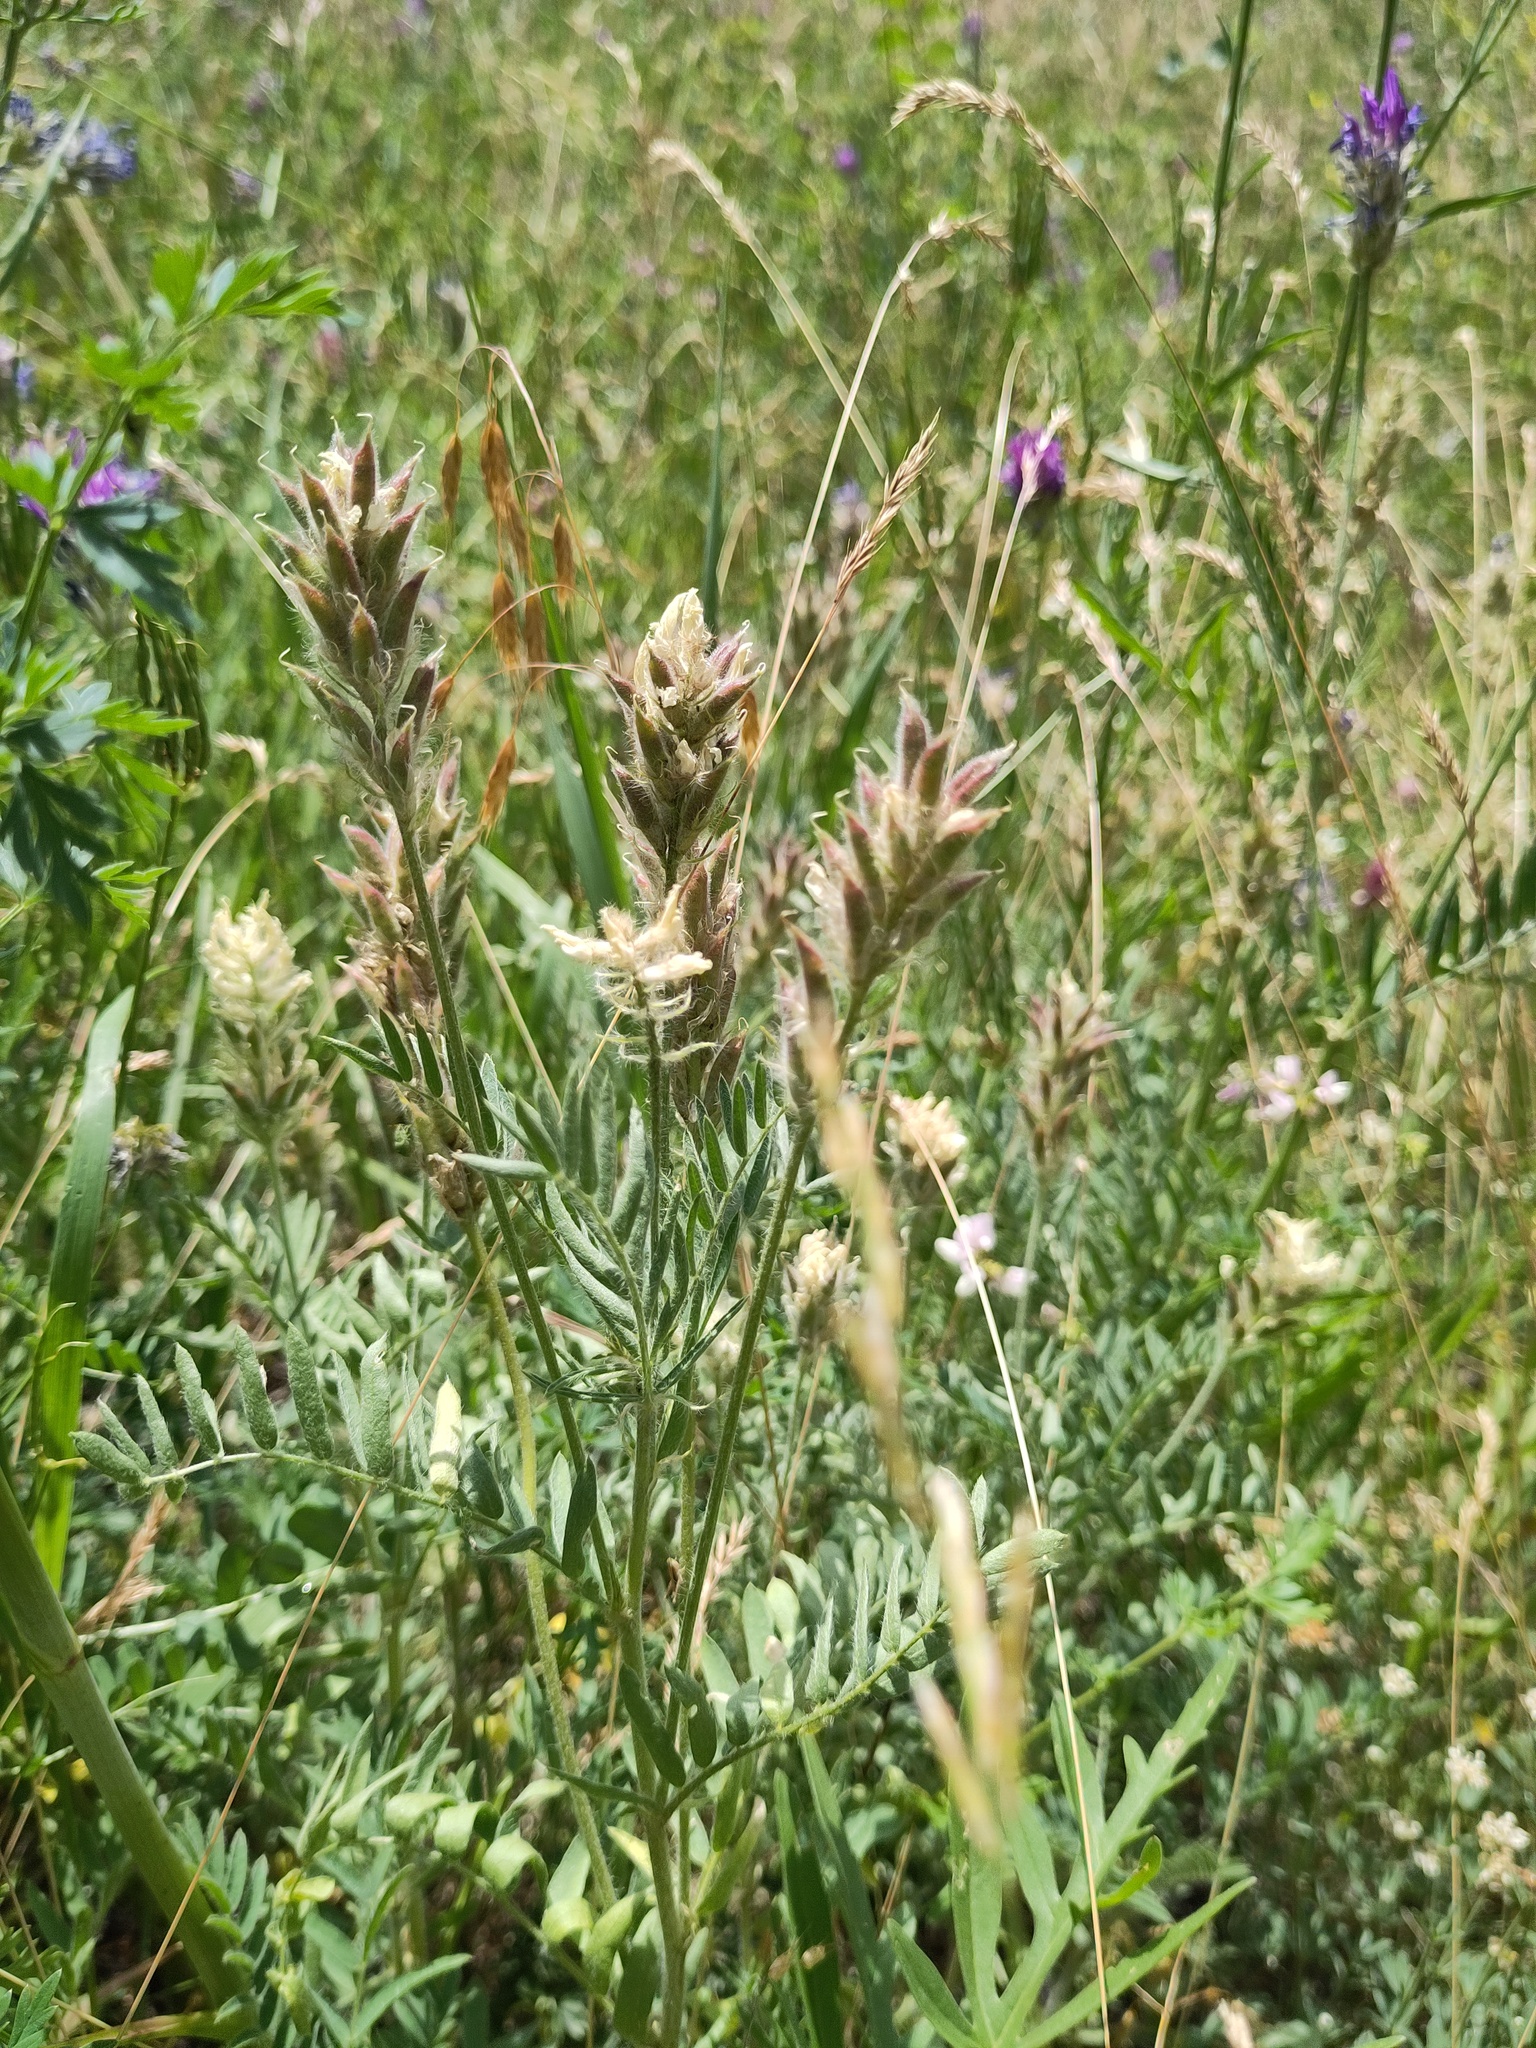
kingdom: Plantae
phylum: Tracheophyta
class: Magnoliopsida
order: Fabales
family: Fabaceae
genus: Oxytropis
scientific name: Oxytropis pilosa
